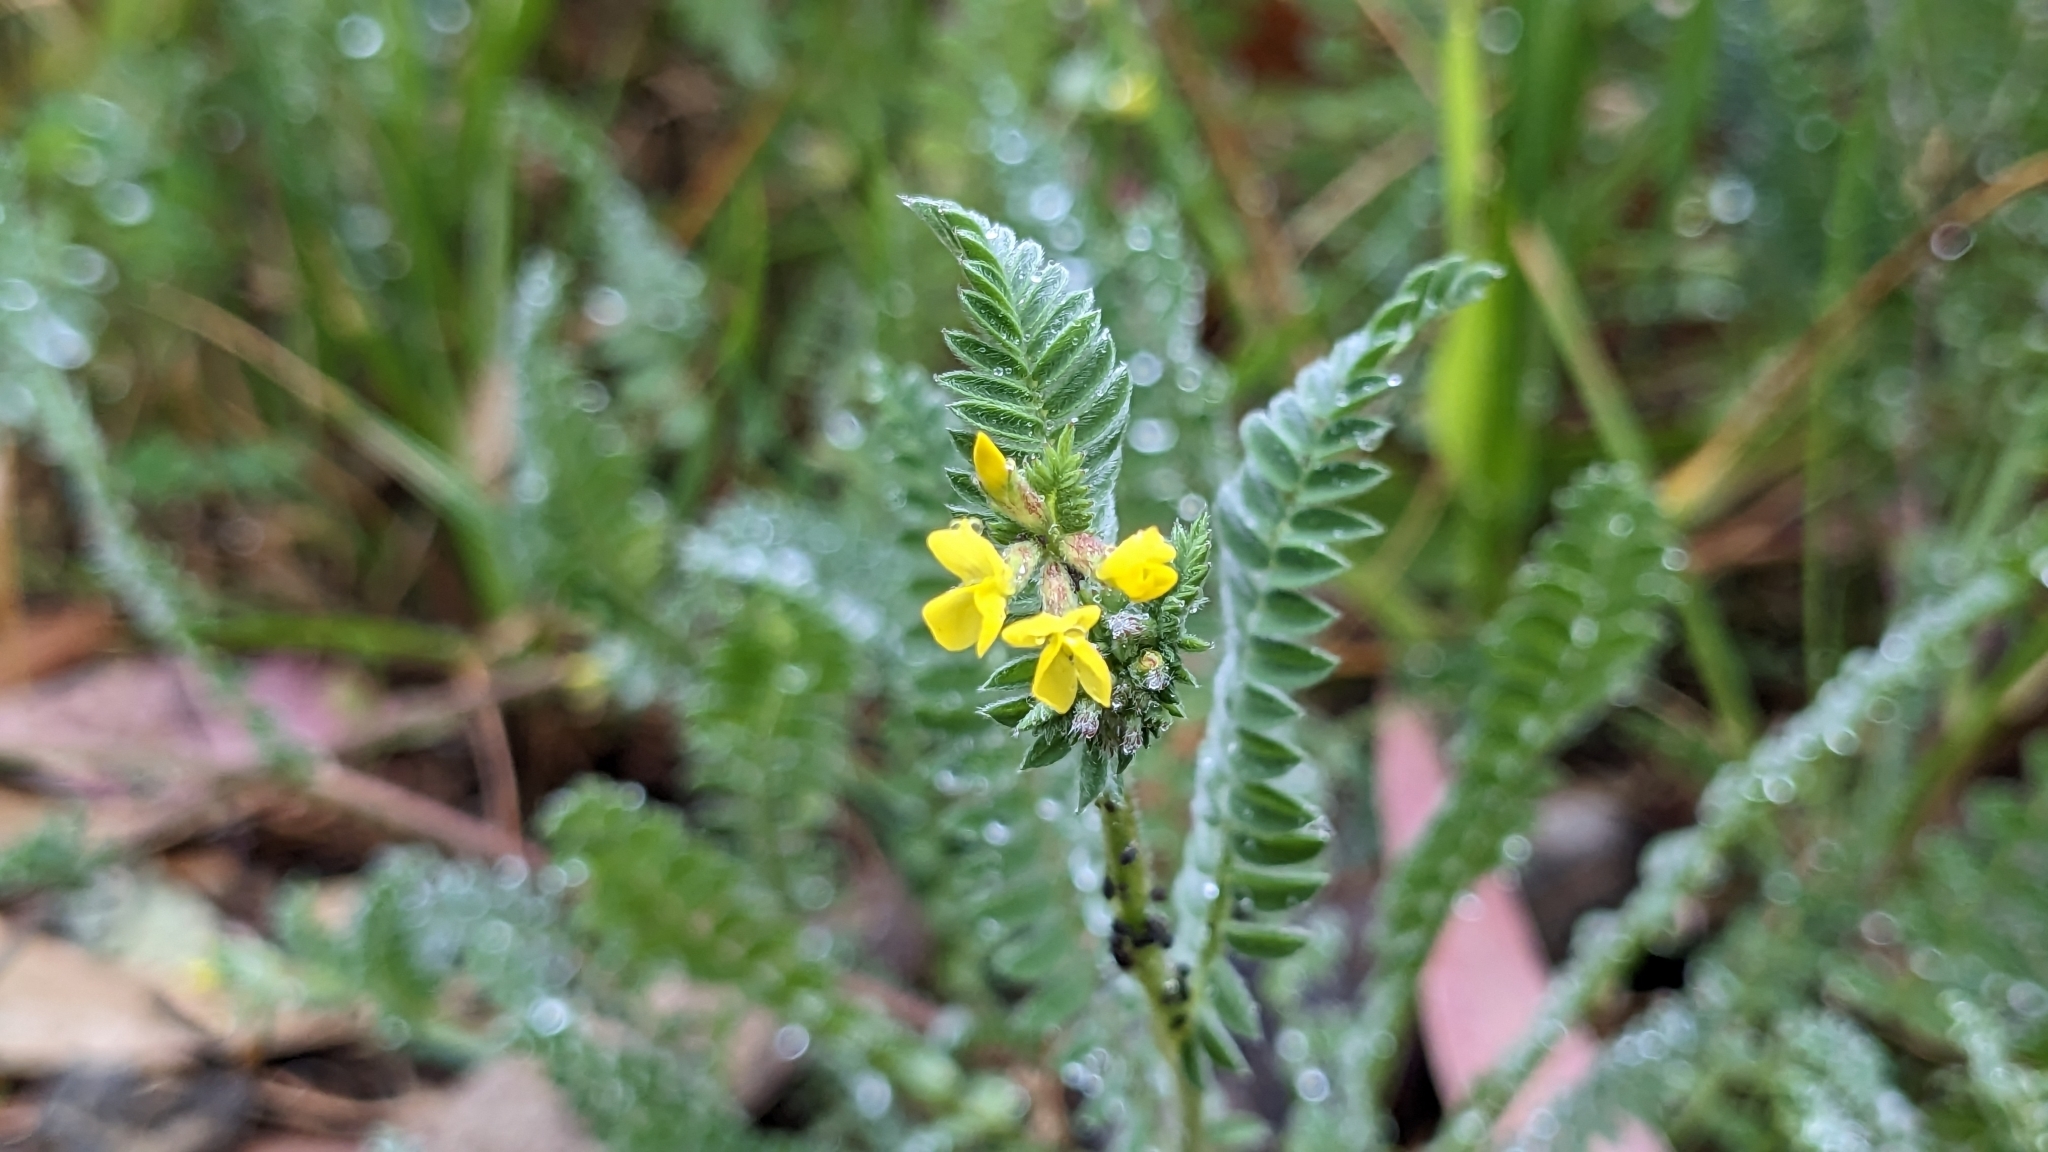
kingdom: Plantae
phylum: Tracheophyta
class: Magnoliopsida
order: Fabales
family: Fabaceae
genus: Ornithopus
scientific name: Ornithopus compressus
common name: Yellow serradella
